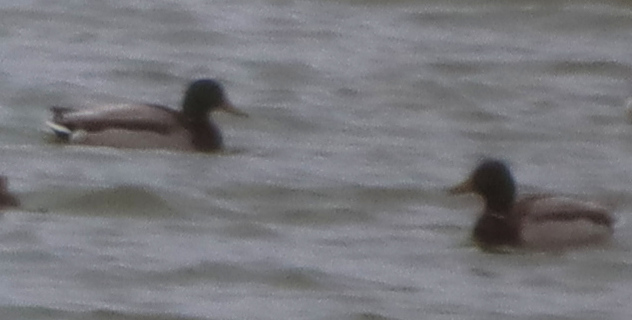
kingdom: Animalia
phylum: Chordata
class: Aves
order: Anseriformes
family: Anatidae
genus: Anas
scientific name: Anas platyrhynchos
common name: Mallard
